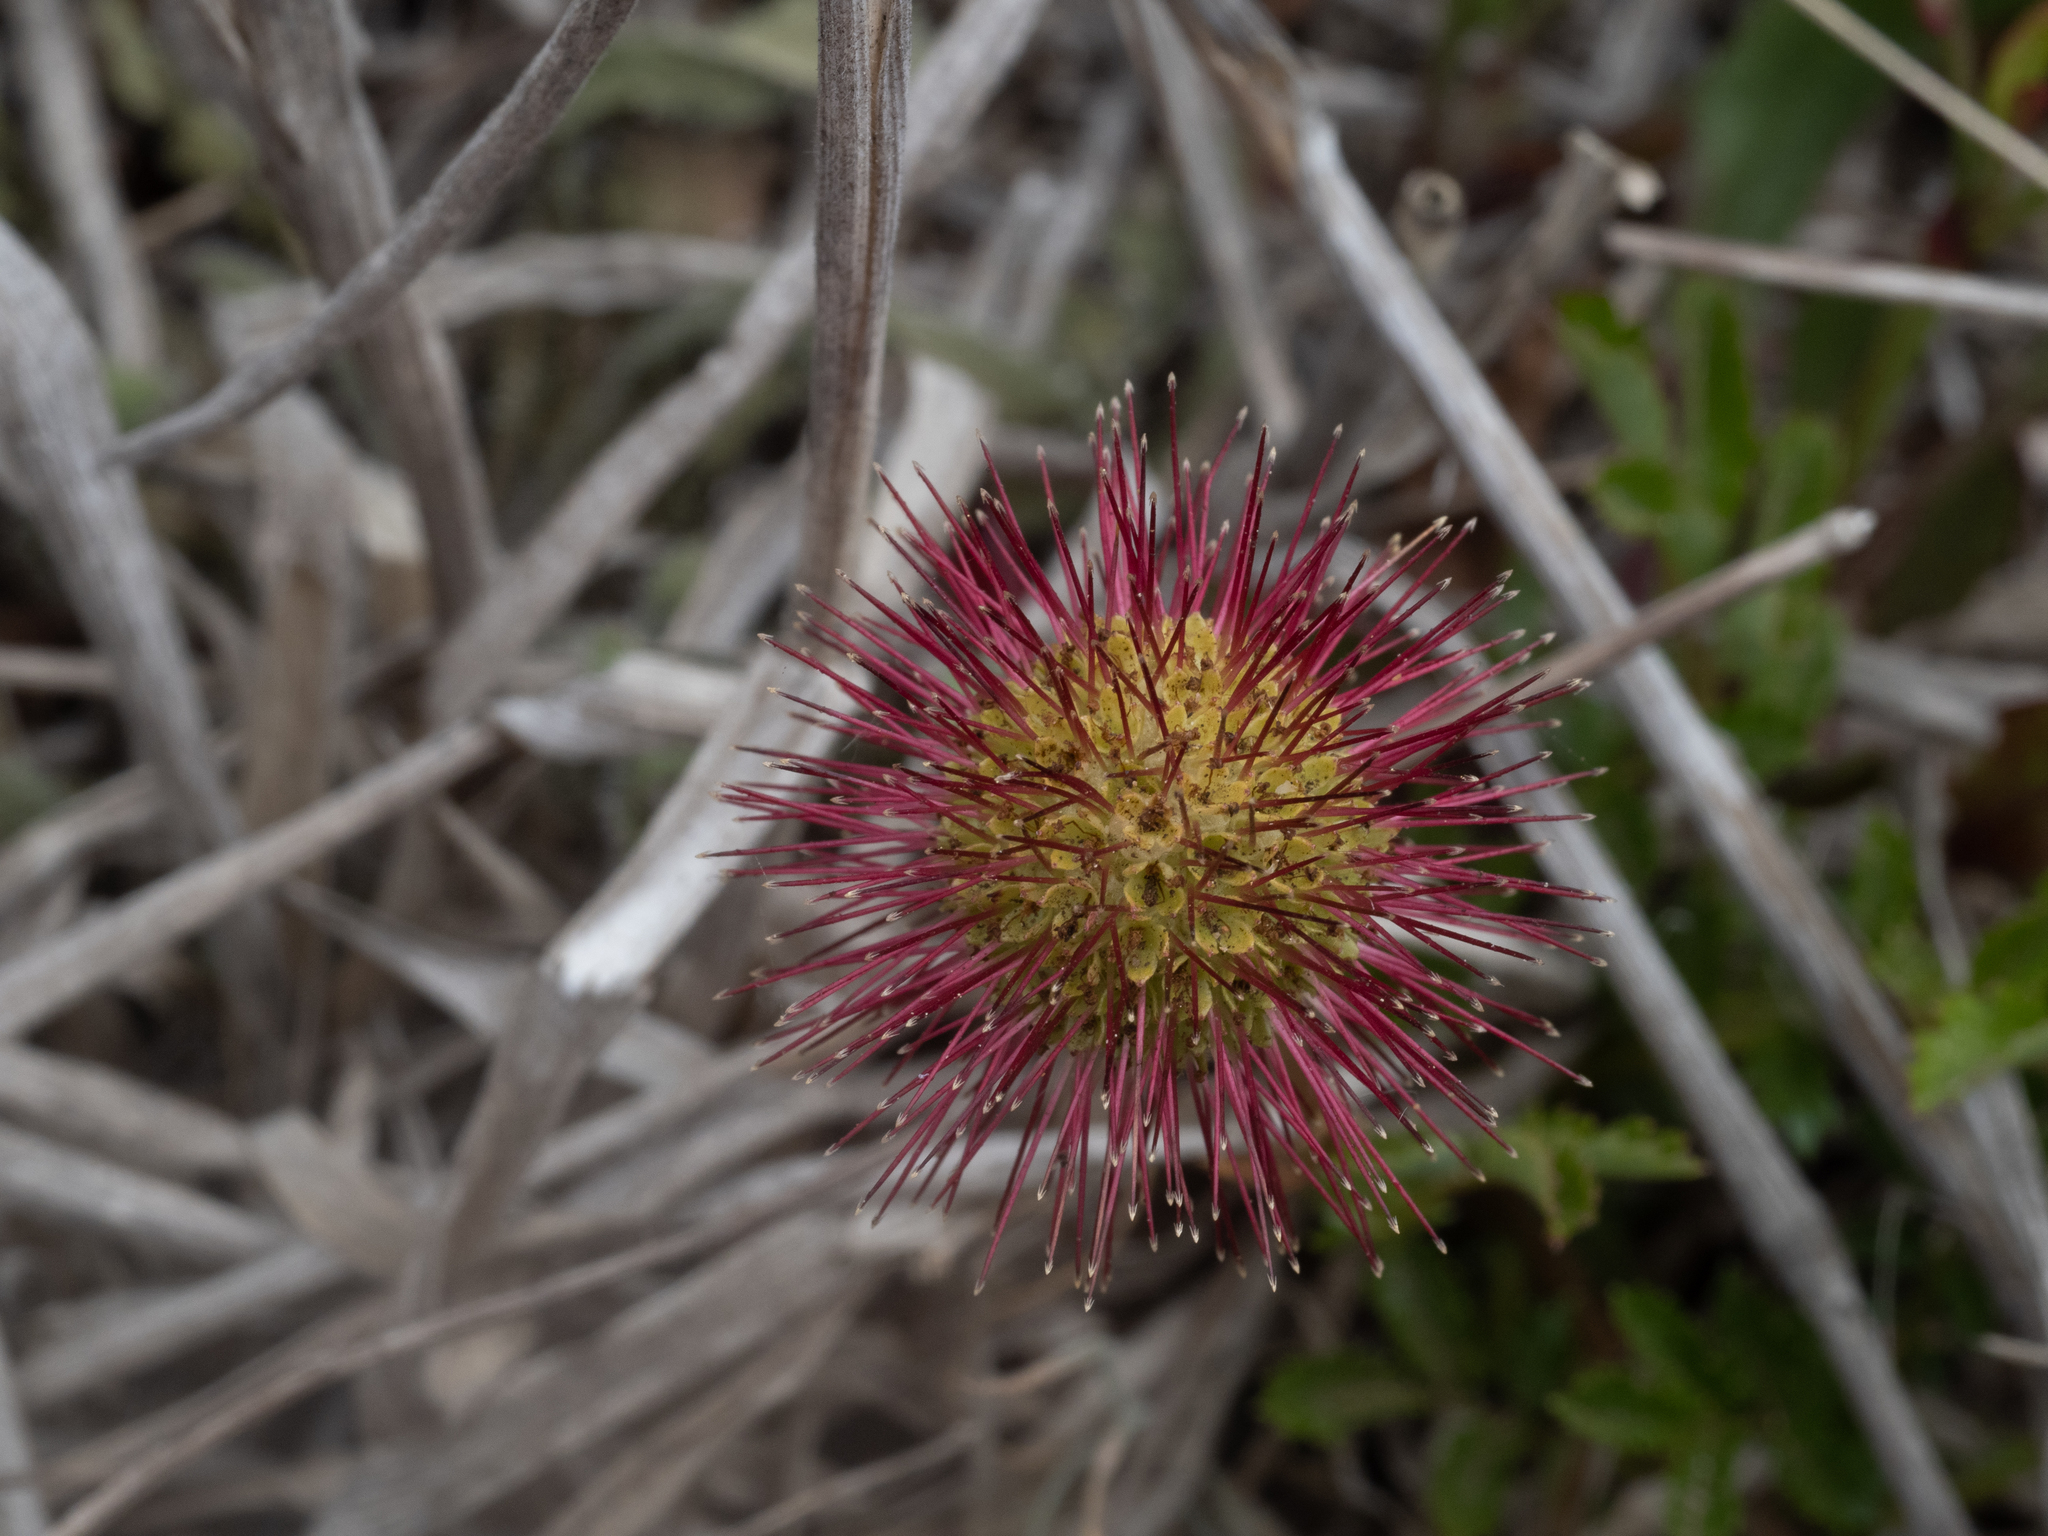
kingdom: Plantae
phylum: Tracheophyta
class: Magnoliopsida
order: Rosales
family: Rosaceae
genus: Acaena
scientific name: Acaena novae-zelandiae
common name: Pirri-pirri-bur
